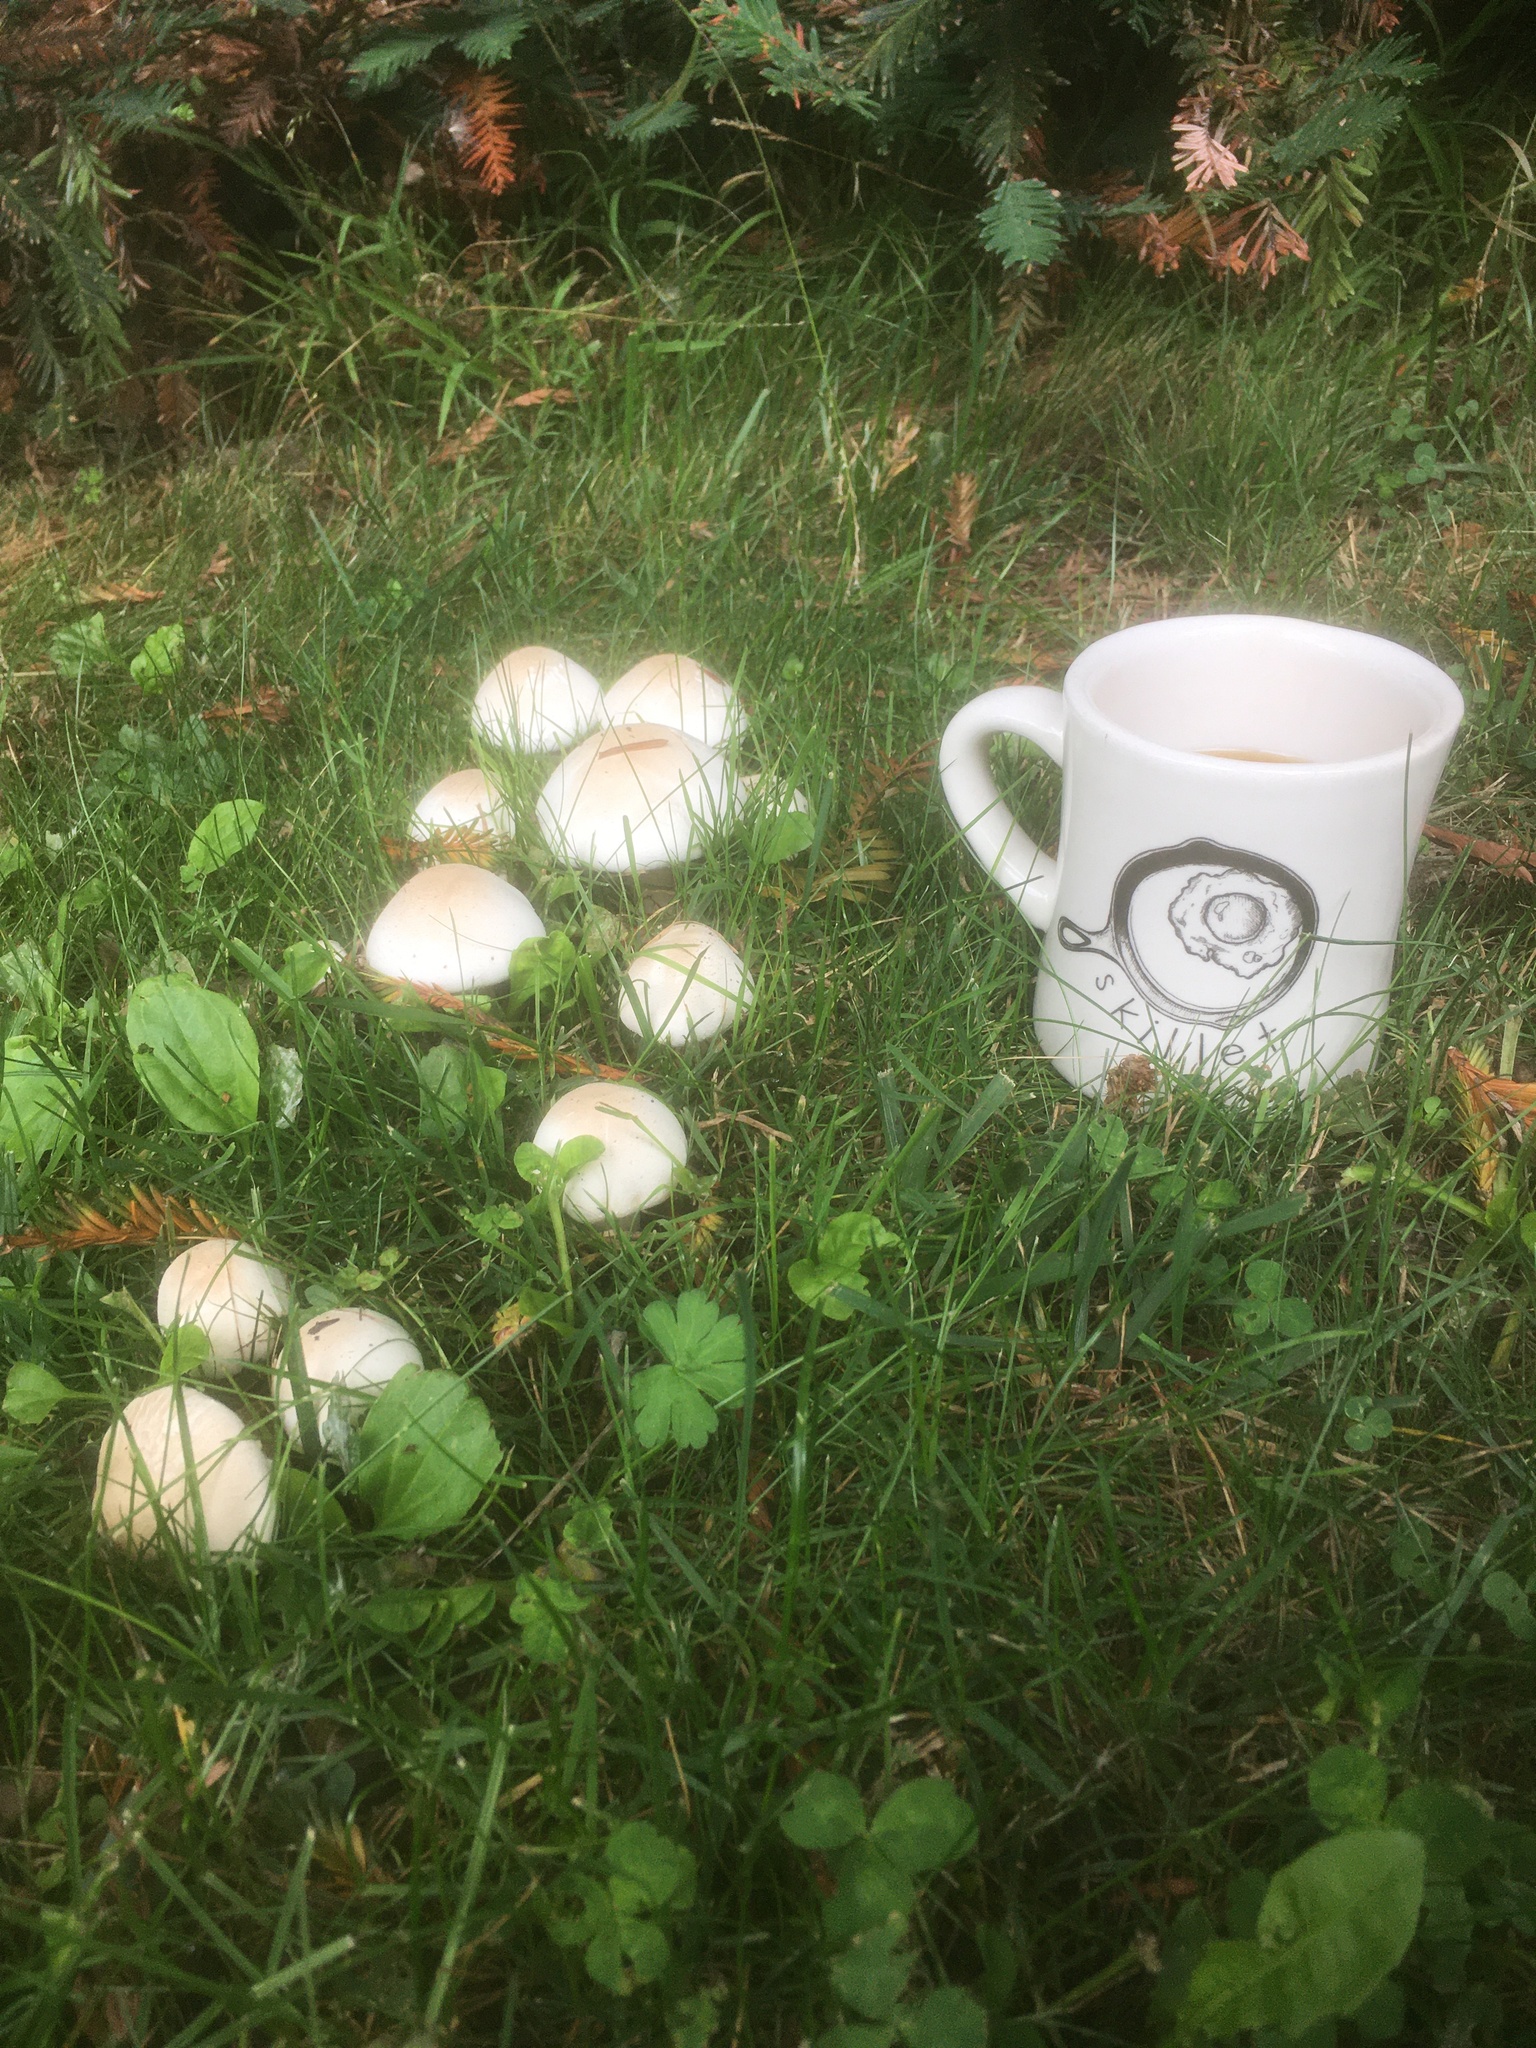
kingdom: Fungi
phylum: Basidiomycota
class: Agaricomycetes
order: Agaricales
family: Agaricaceae
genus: Agaricus
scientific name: Agaricus xanthodermus
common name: Yellow stainer
